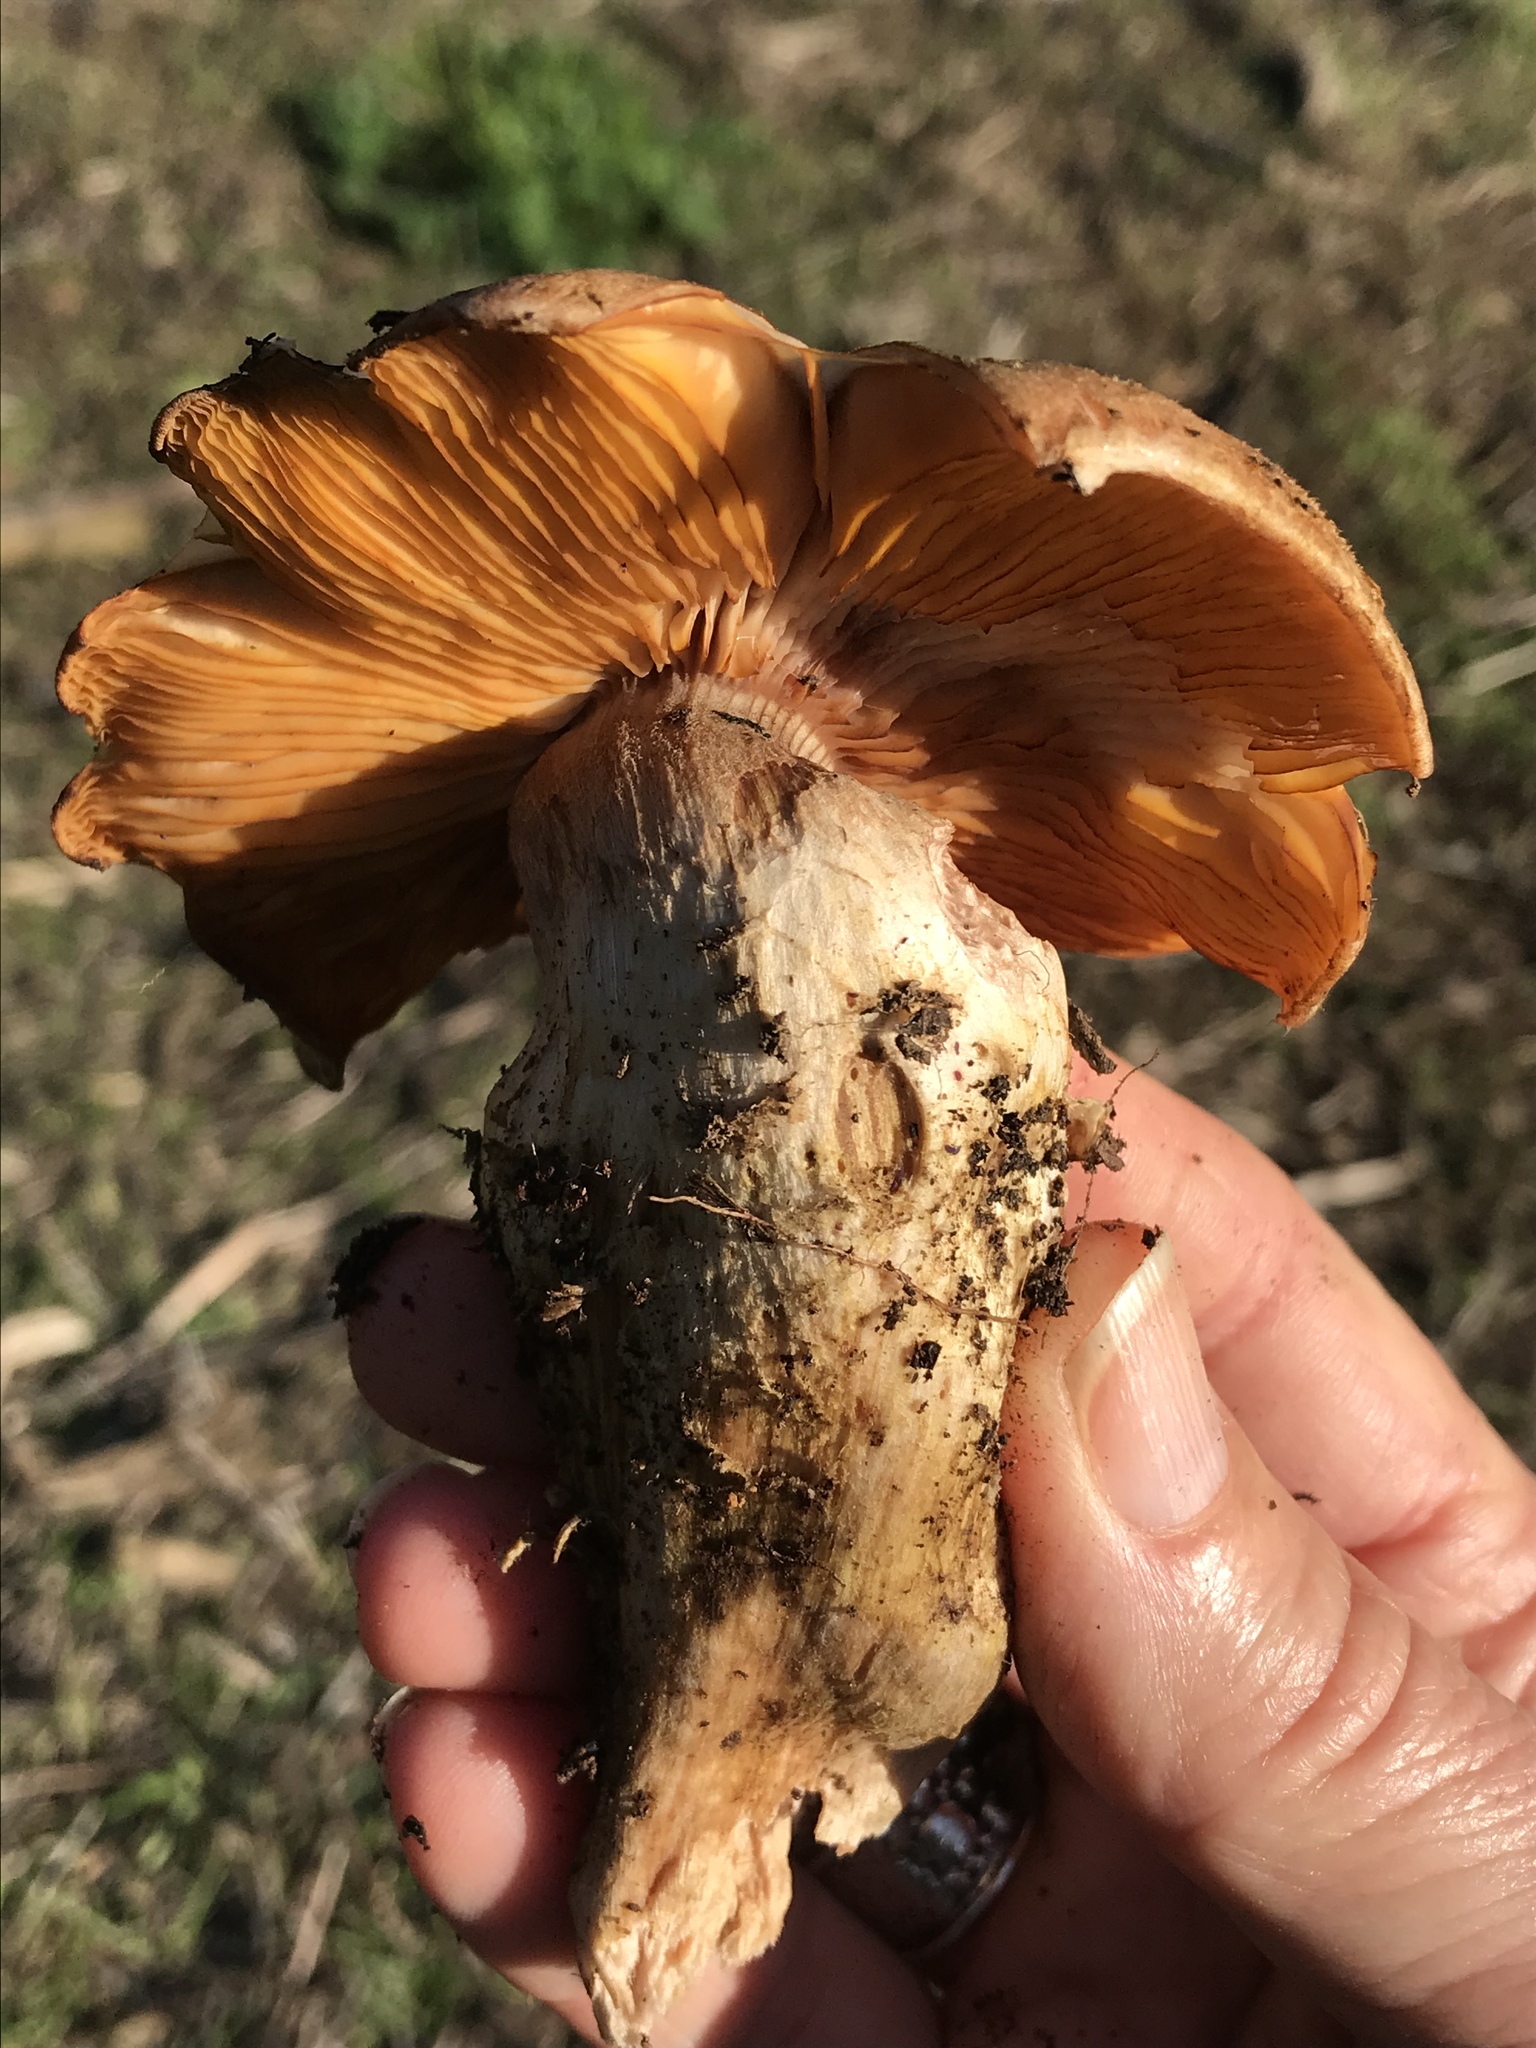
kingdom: Fungi
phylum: Basidiomycota
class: Agaricomycetes
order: Agaricales
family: Physalacriaceae
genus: Armillaria
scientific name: Armillaria mellea
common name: Honey fungus
